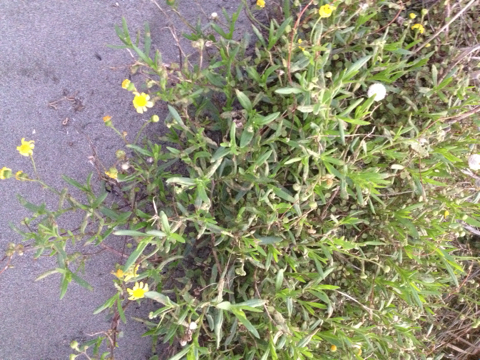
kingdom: Plantae
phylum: Tracheophyta
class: Magnoliopsida
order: Asterales
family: Asteraceae
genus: Senecio
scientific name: Senecio skirrhodon
